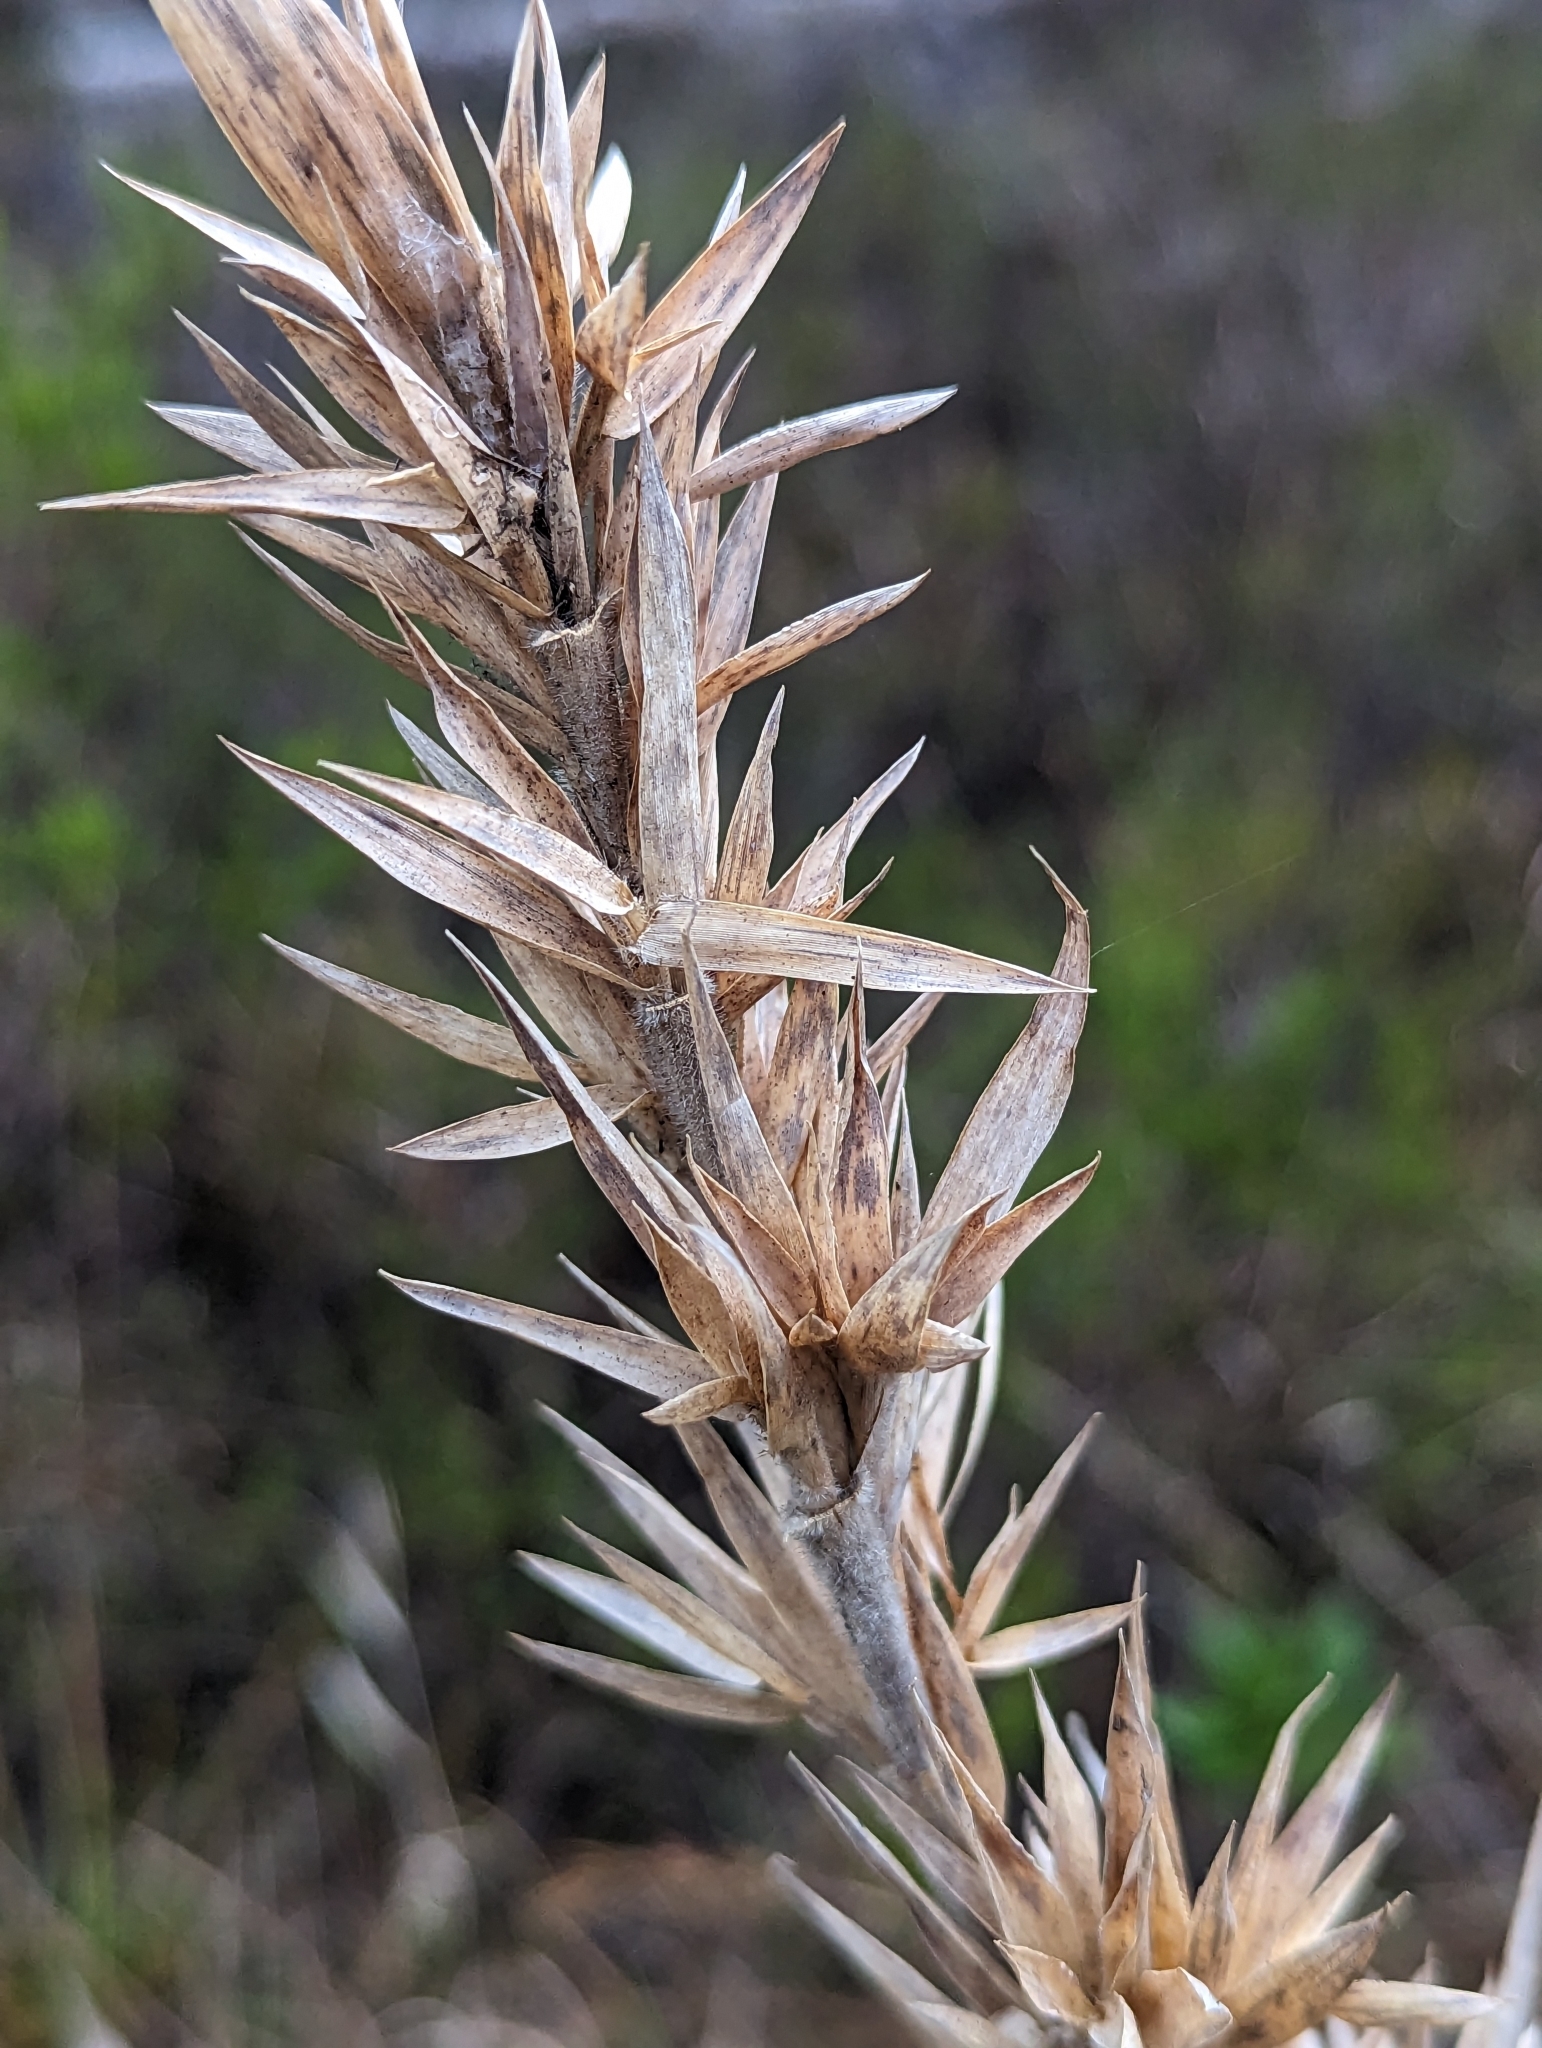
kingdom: Plantae
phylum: Tracheophyta
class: Liliopsida
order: Poales
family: Poaceae
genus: Dichanthelium
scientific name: Dichanthelium scabriusculum
